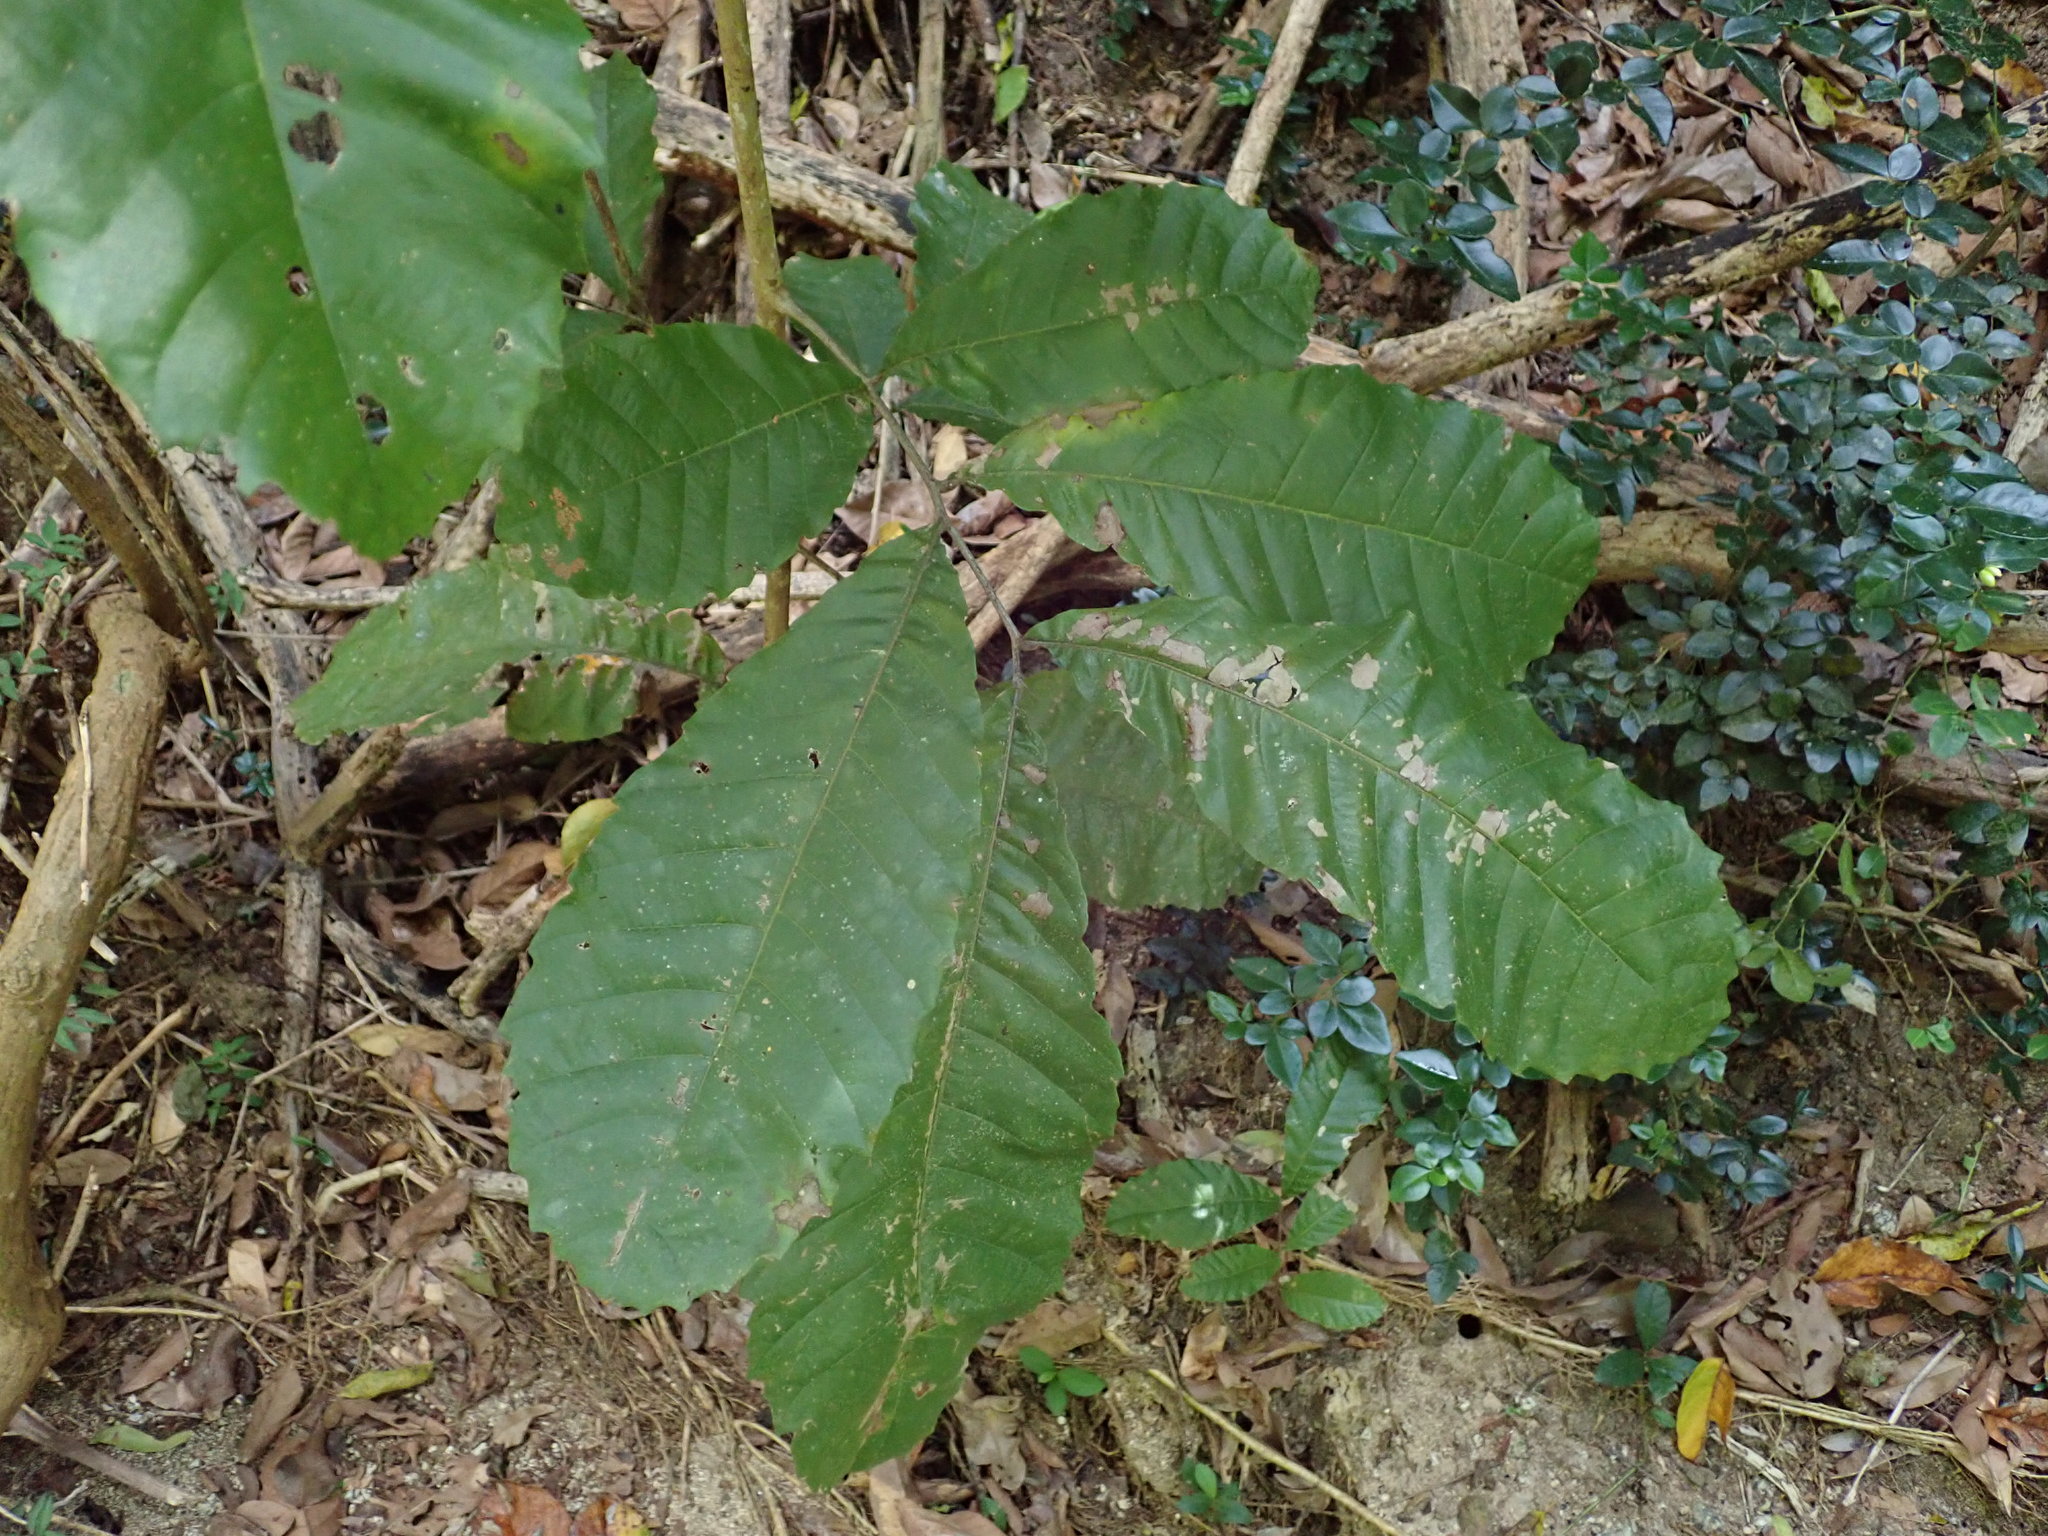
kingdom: Plantae
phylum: Tracheophyta
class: Magnoliopsida
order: Sapindales
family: Sapindaceae
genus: Cupania
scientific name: Cupania americana
